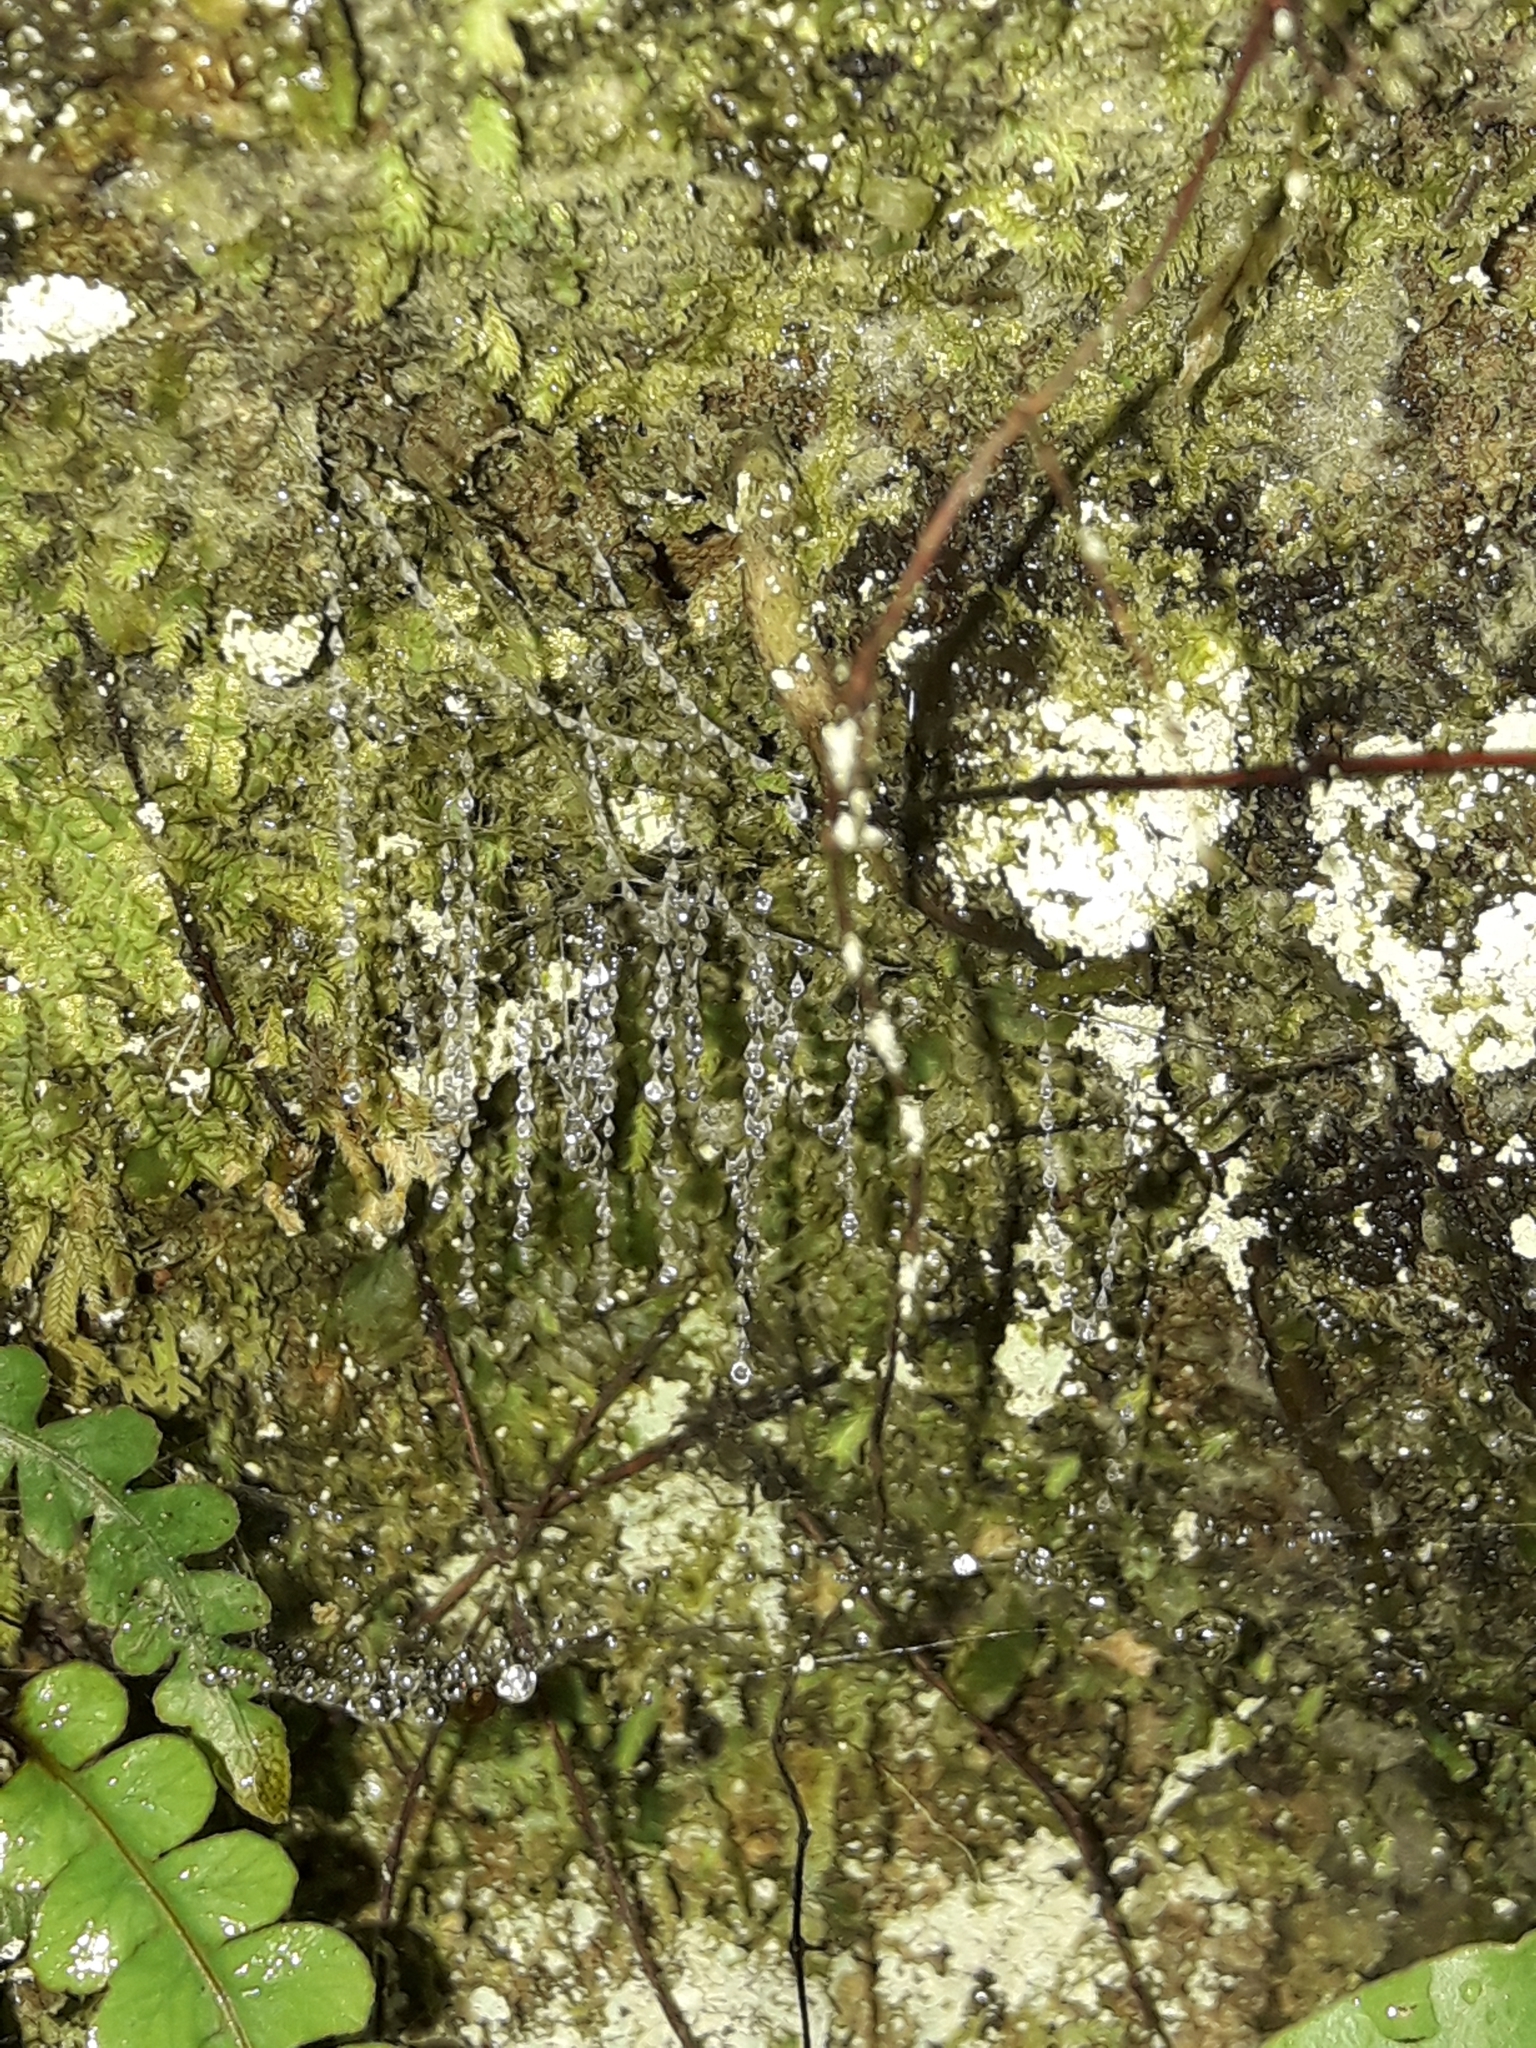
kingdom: Animalia
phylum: Arthropoda
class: Insecta
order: Diptera
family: Keroplatidae
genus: Arachnocampa
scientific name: Arachnocampa luminosa
